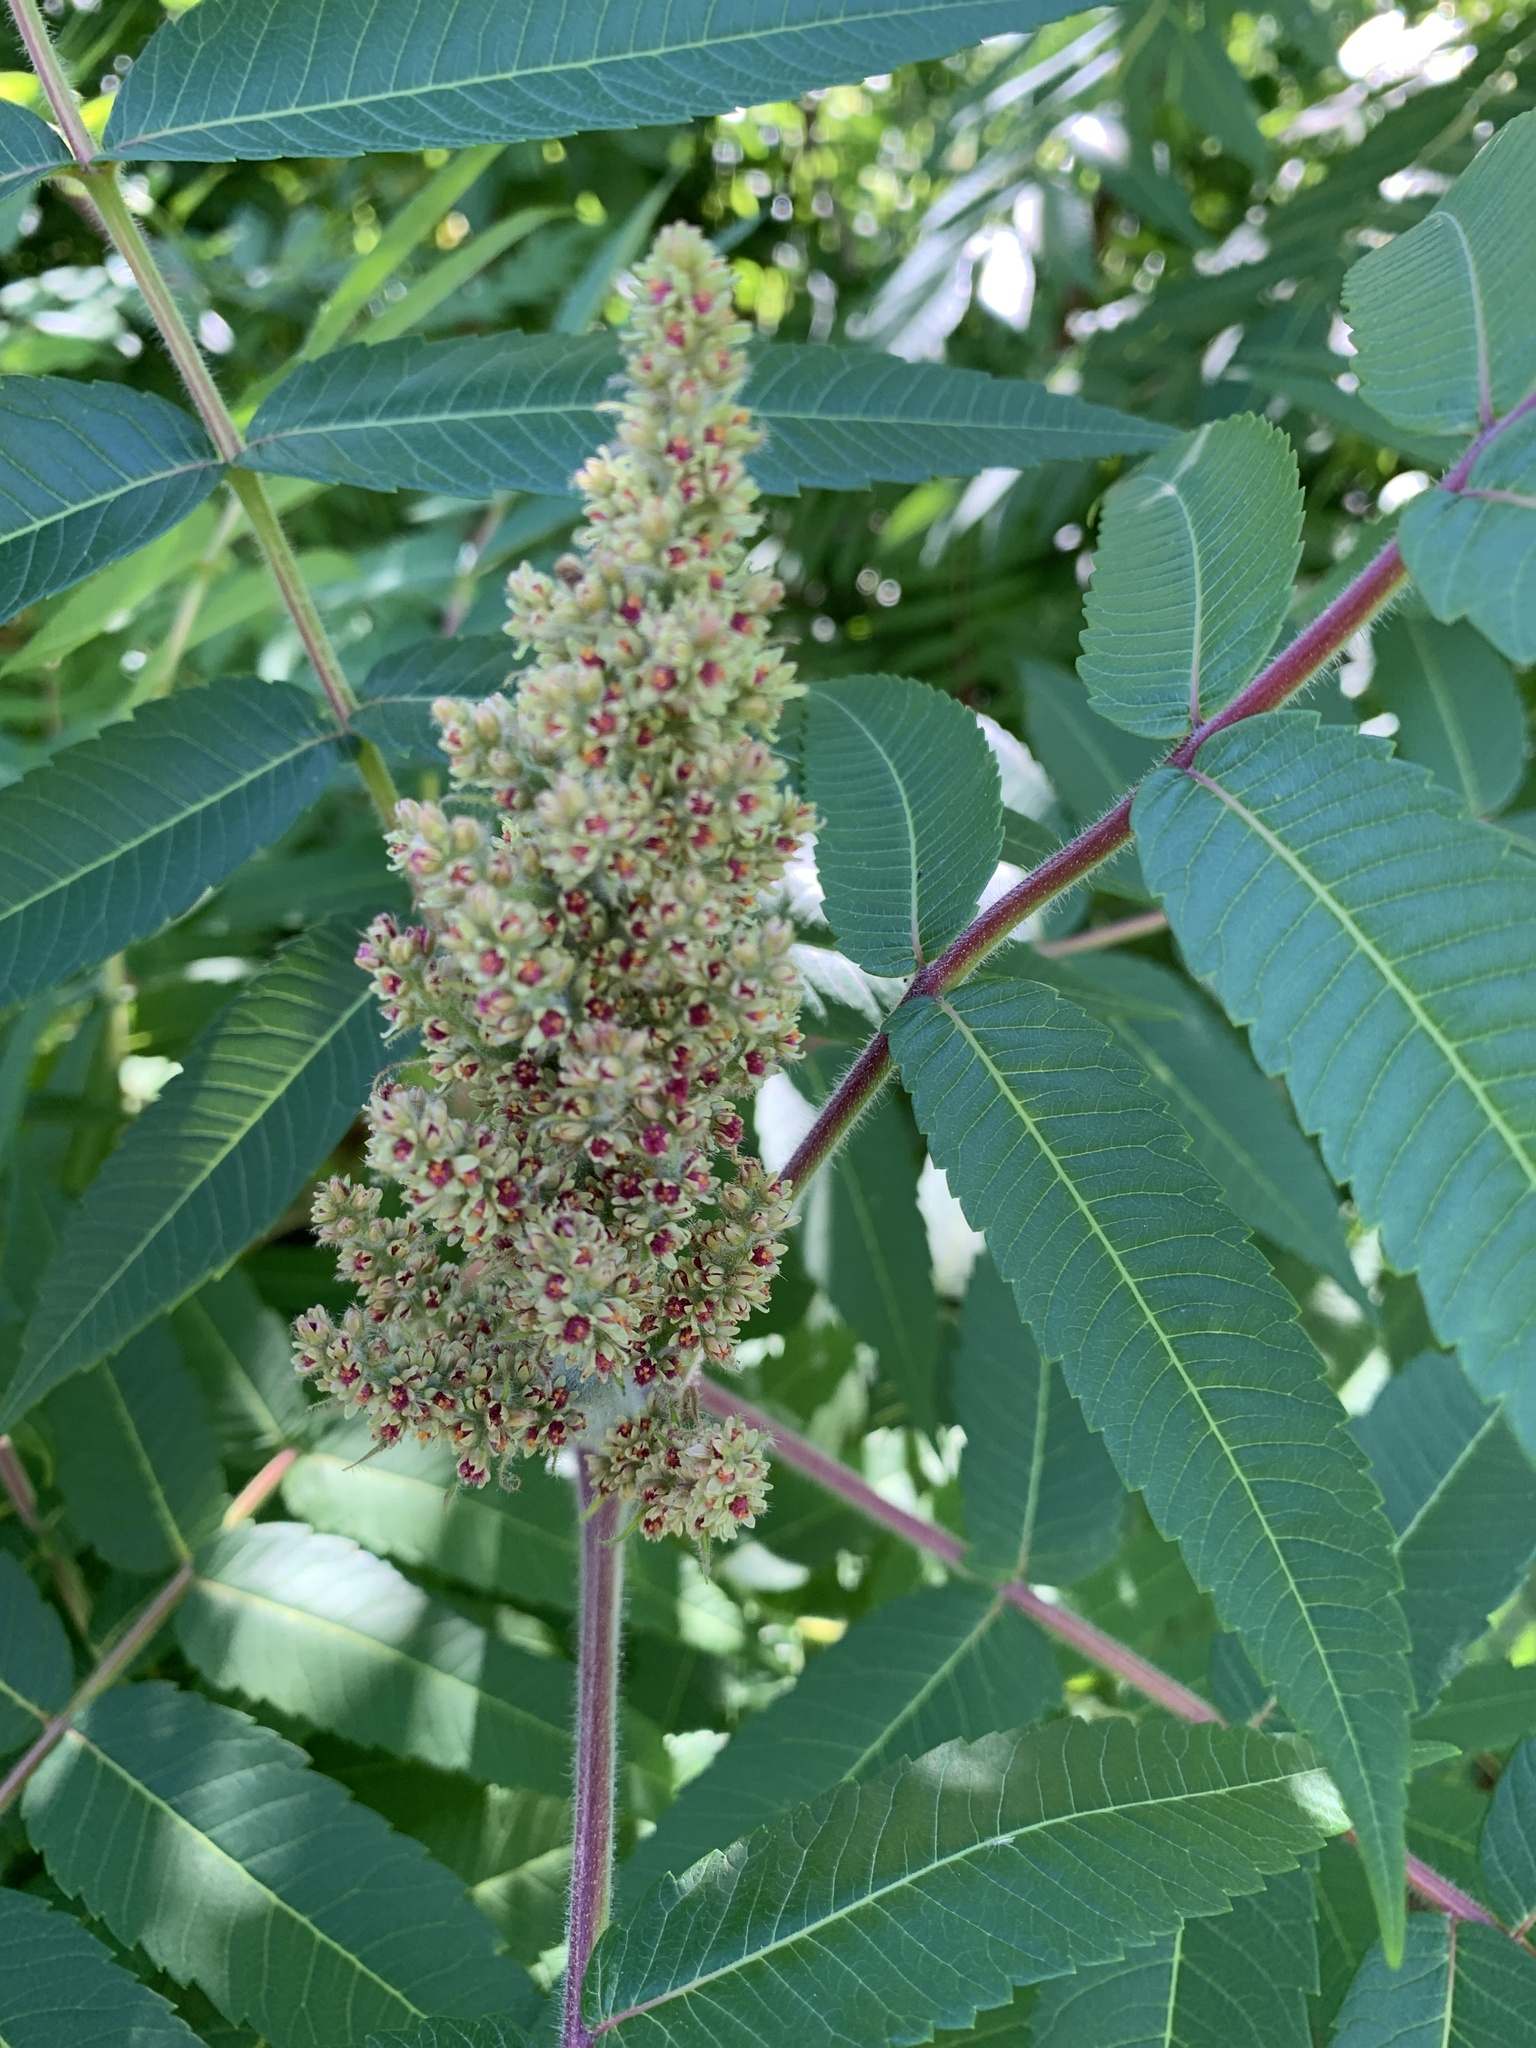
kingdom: Plantae
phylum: Tracheophyta
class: Magnoliopsida
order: Sapindales
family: Anacardiaceae
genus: Rhus
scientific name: Rhus typhina
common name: Staghorn sumac
